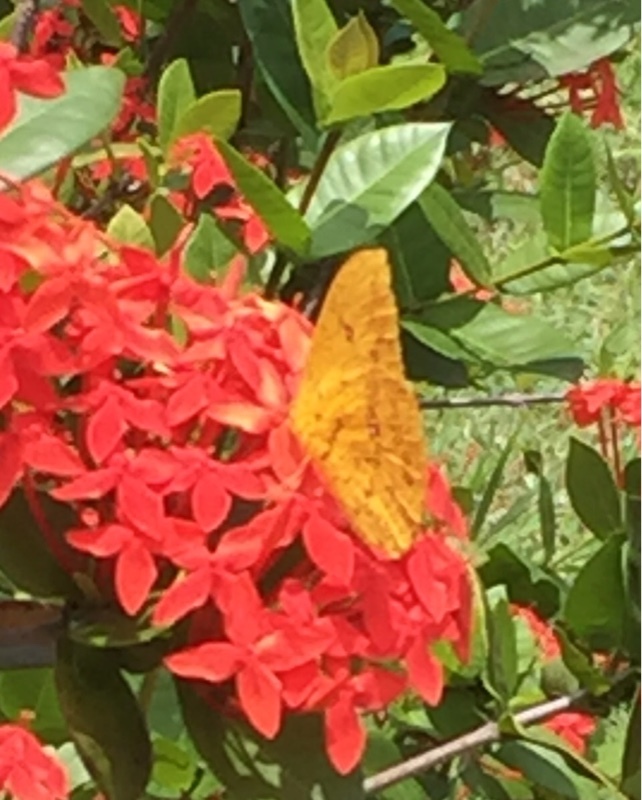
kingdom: Animalia
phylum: Arthropoda
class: Insecta
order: Lepidoptera
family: Pieridae
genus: Phoebis
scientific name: Phoebis agarithe
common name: Large orange sulphur
